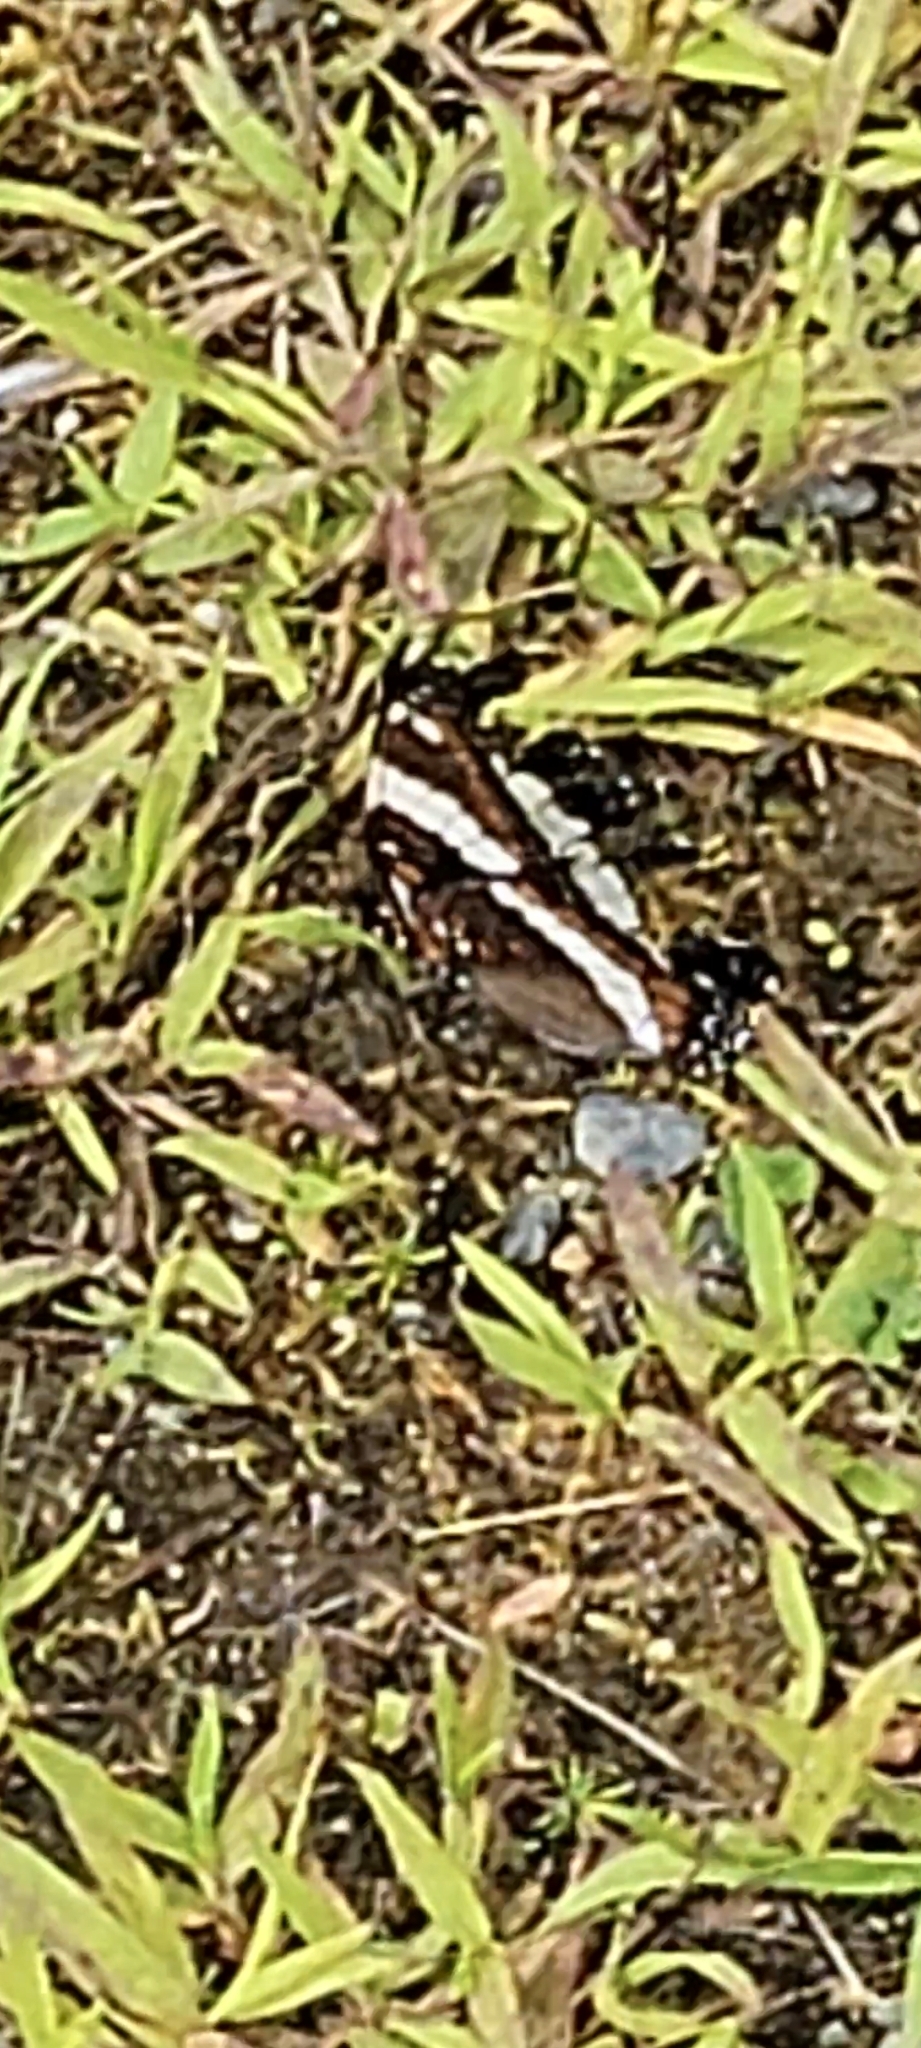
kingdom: Animalia
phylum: Arthropoda
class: Insecta
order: Lepidoptera
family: Nymphalidae
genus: Limenitis
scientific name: Limenitis arthemis
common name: Red-spotted admiral
